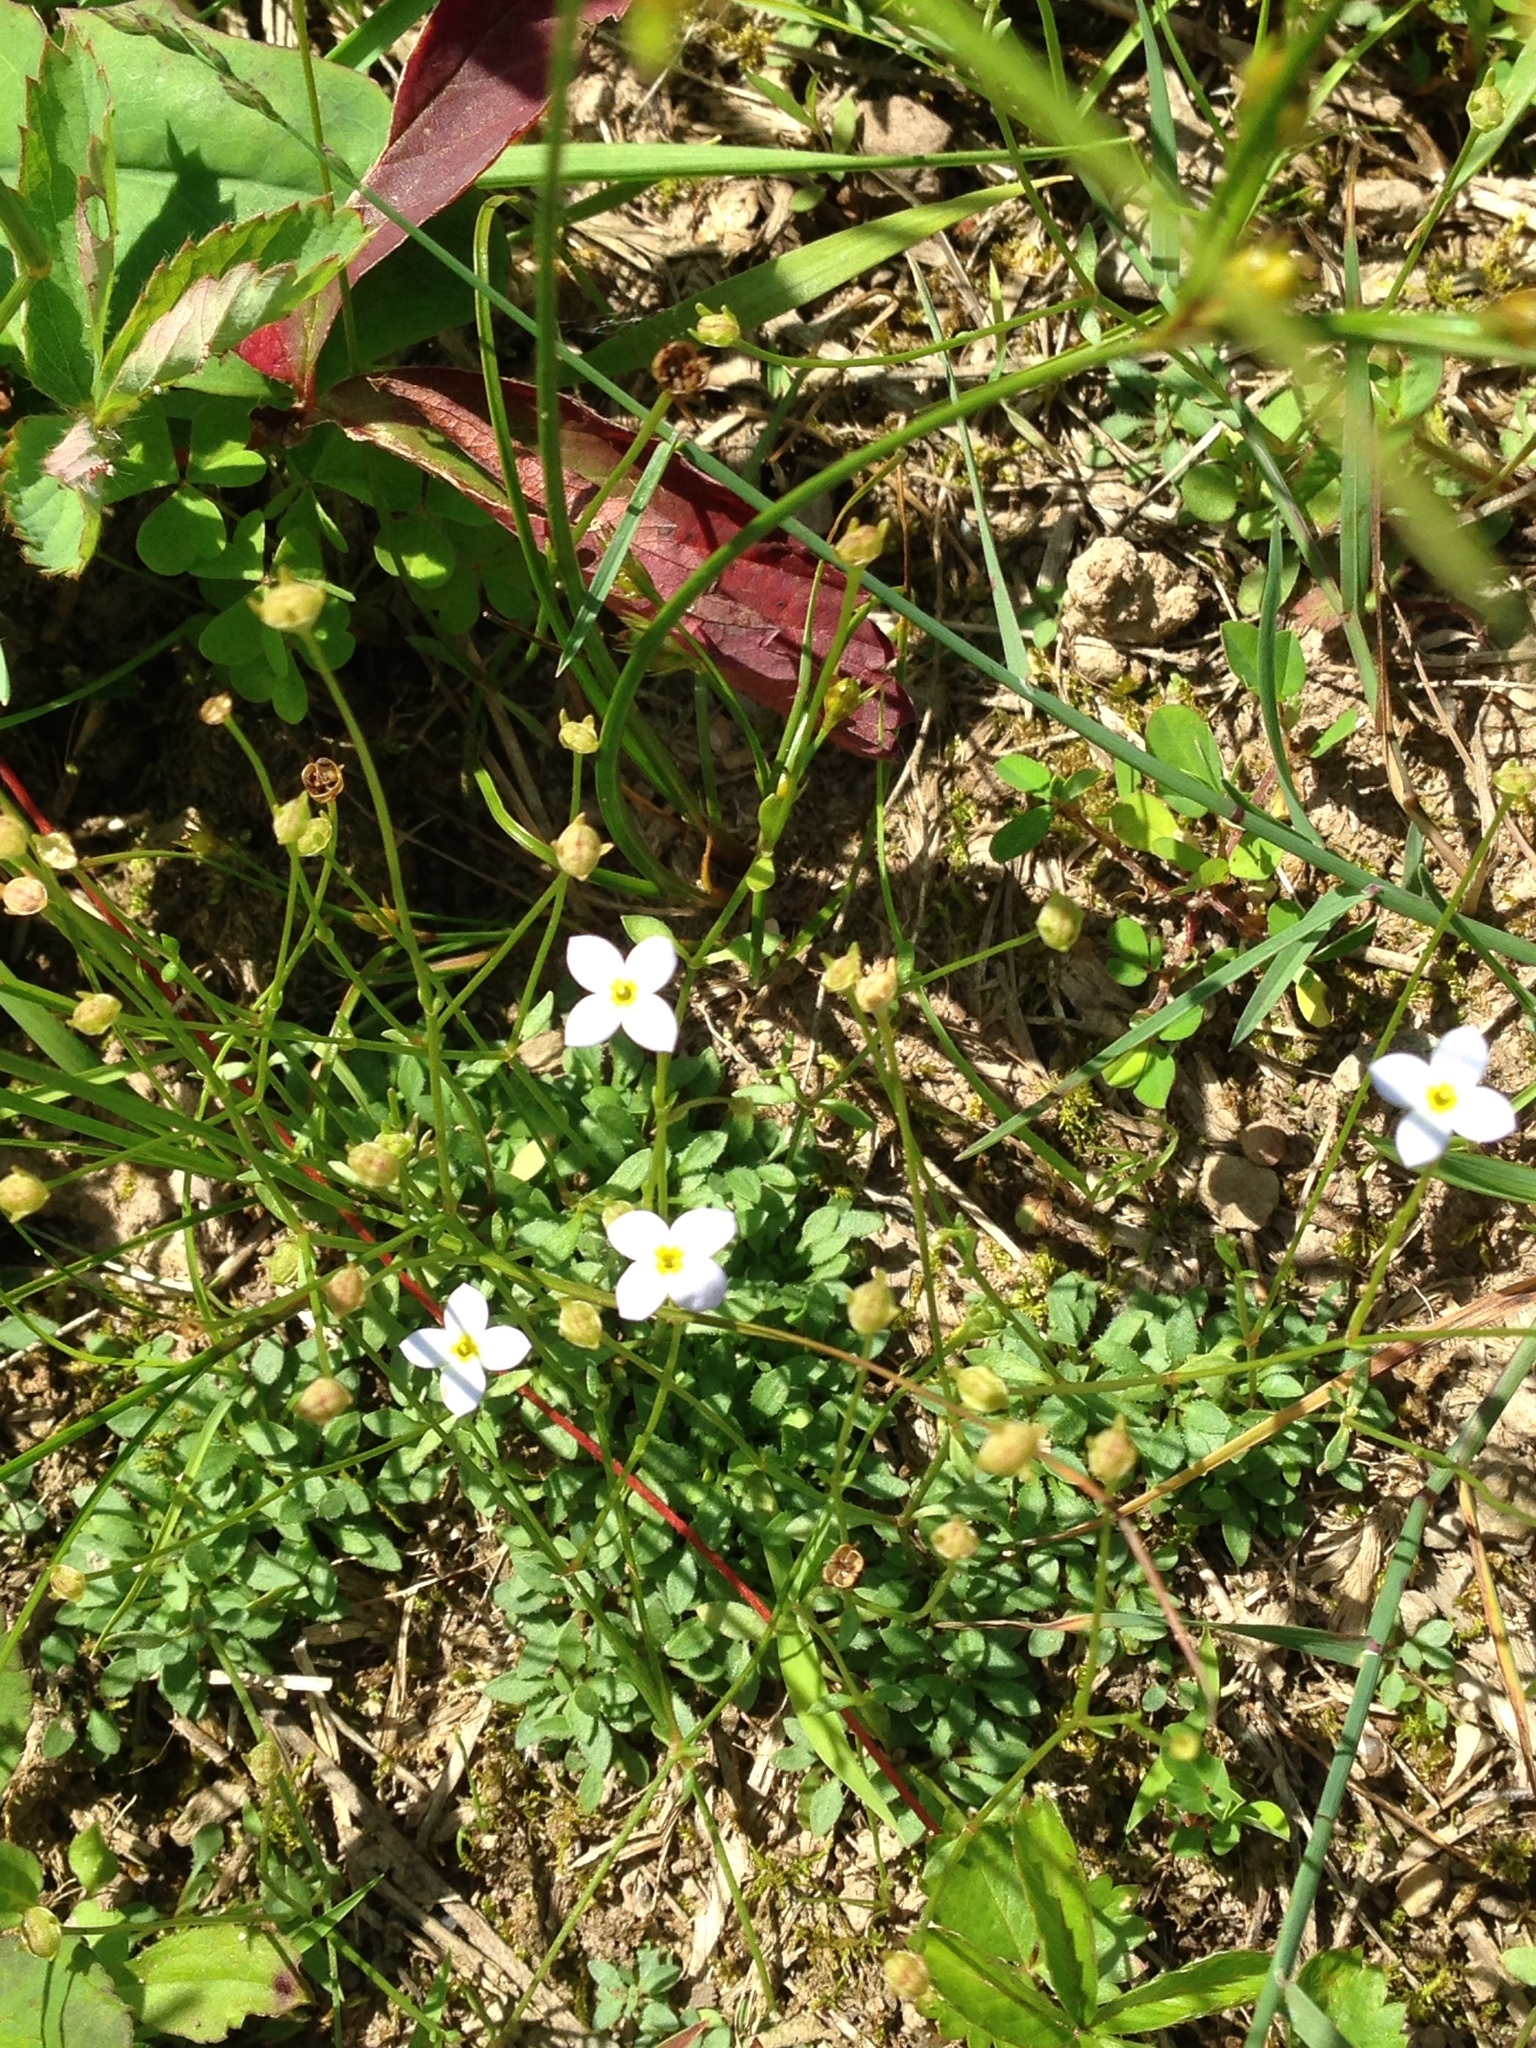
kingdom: Plantae
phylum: Tracheophyta
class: Magnoliopsida
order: Gentianales
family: Rubiaceae
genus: Houstonia
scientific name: Houstonia caerulea
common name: Bluets
